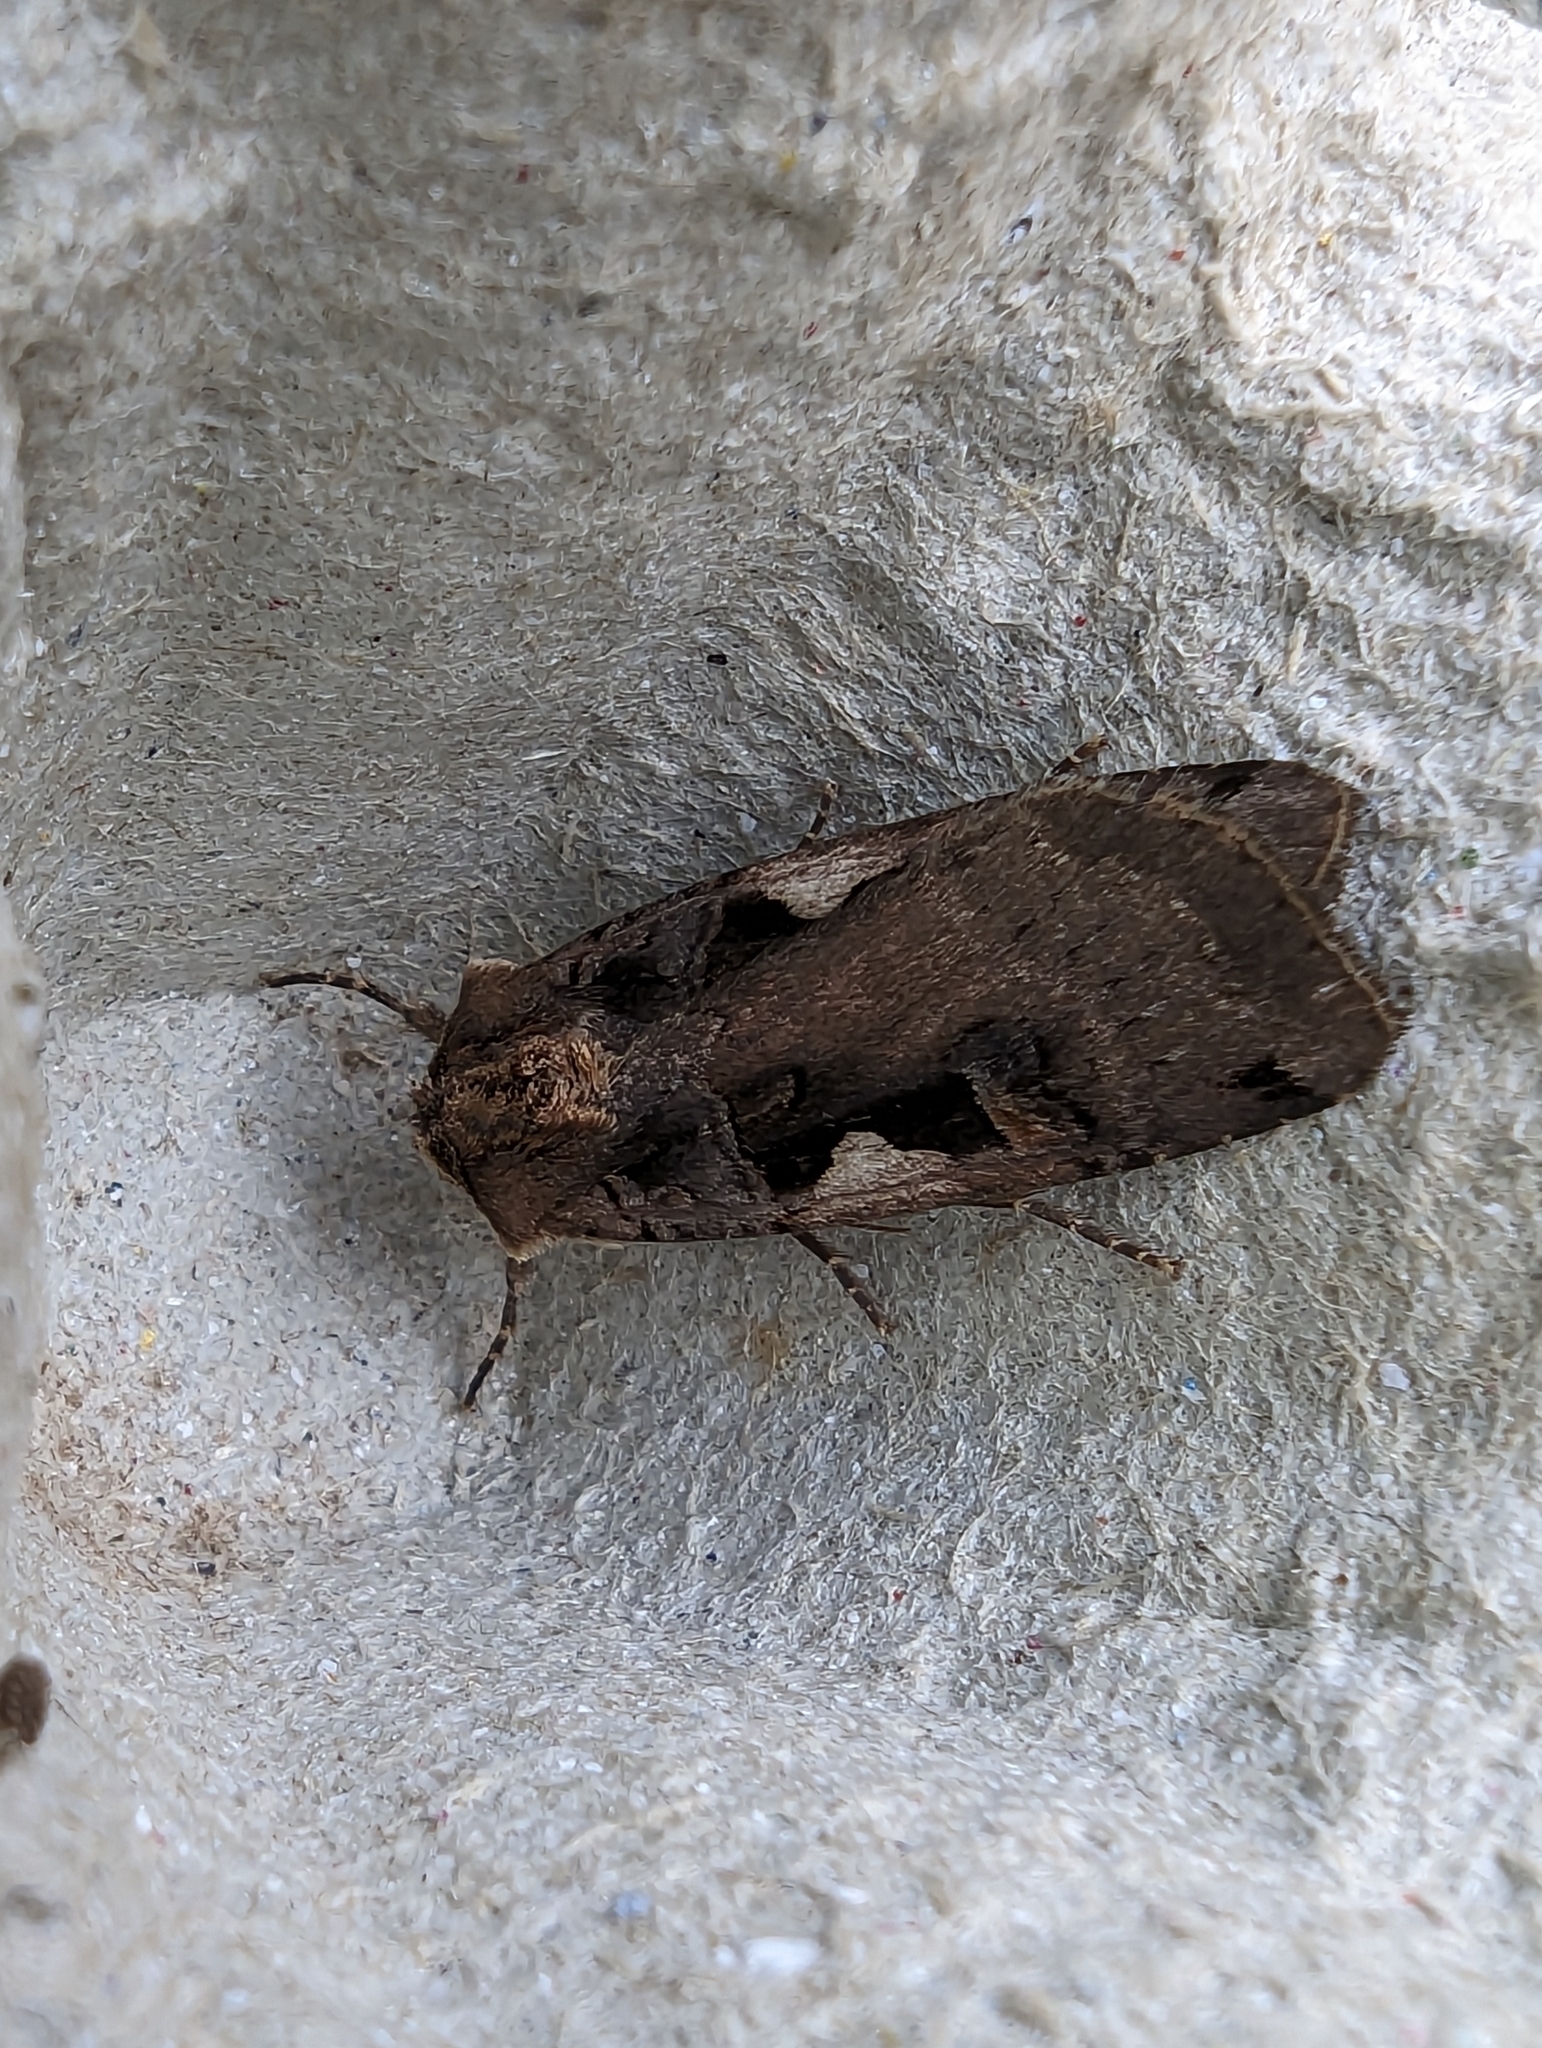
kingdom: Animalia
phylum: Arthropoda
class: Insecta
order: Lepidoptera
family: Noctuidae
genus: Xestia
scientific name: Xestia c-nigrum
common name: Setaceous hebrew character
